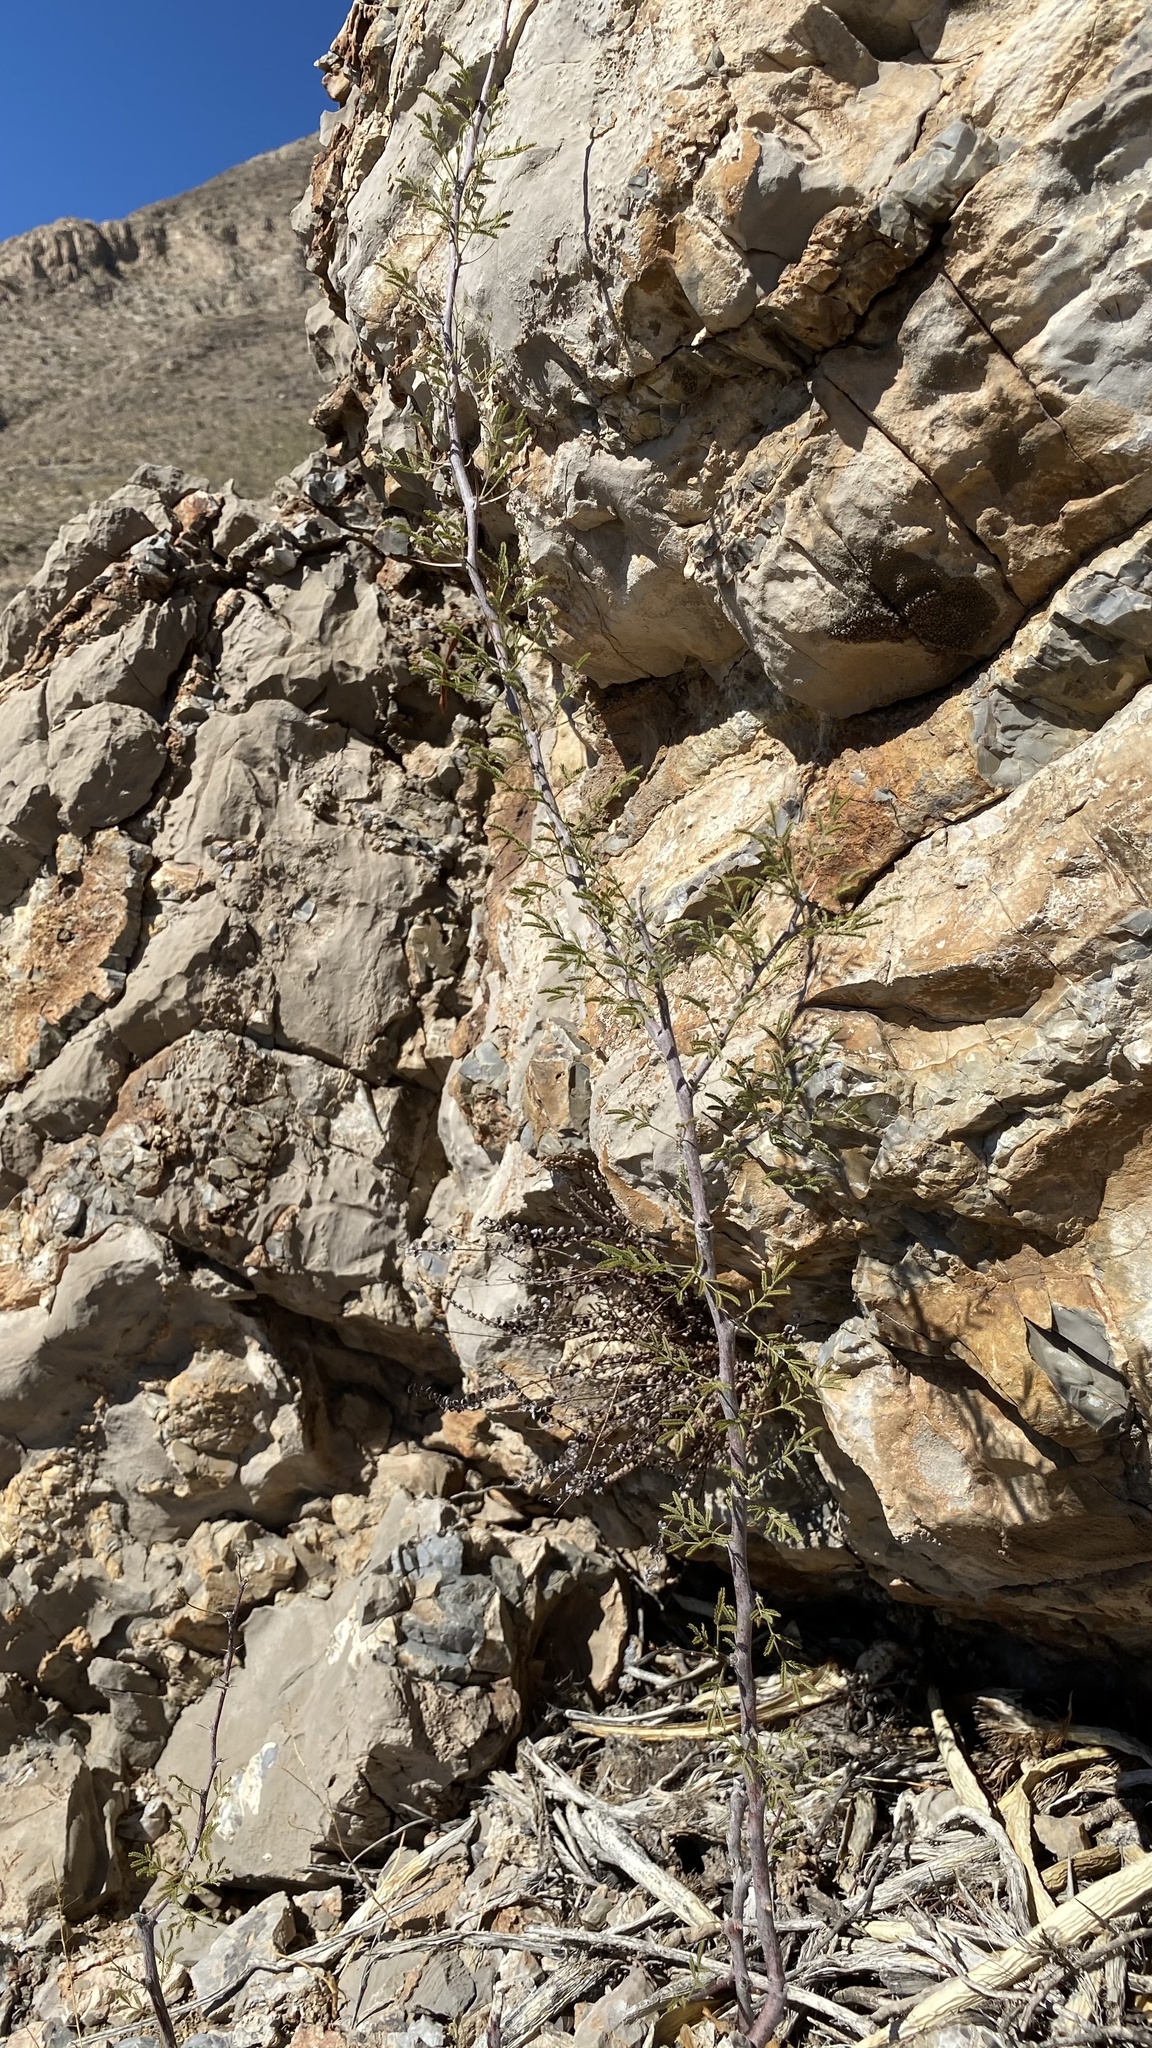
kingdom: Plantae
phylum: Tracheophyta
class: Magnoliopsida
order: Fabales
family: Fabaceae
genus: Vachellia
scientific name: Vachellia constricta
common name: Mescat acacia
